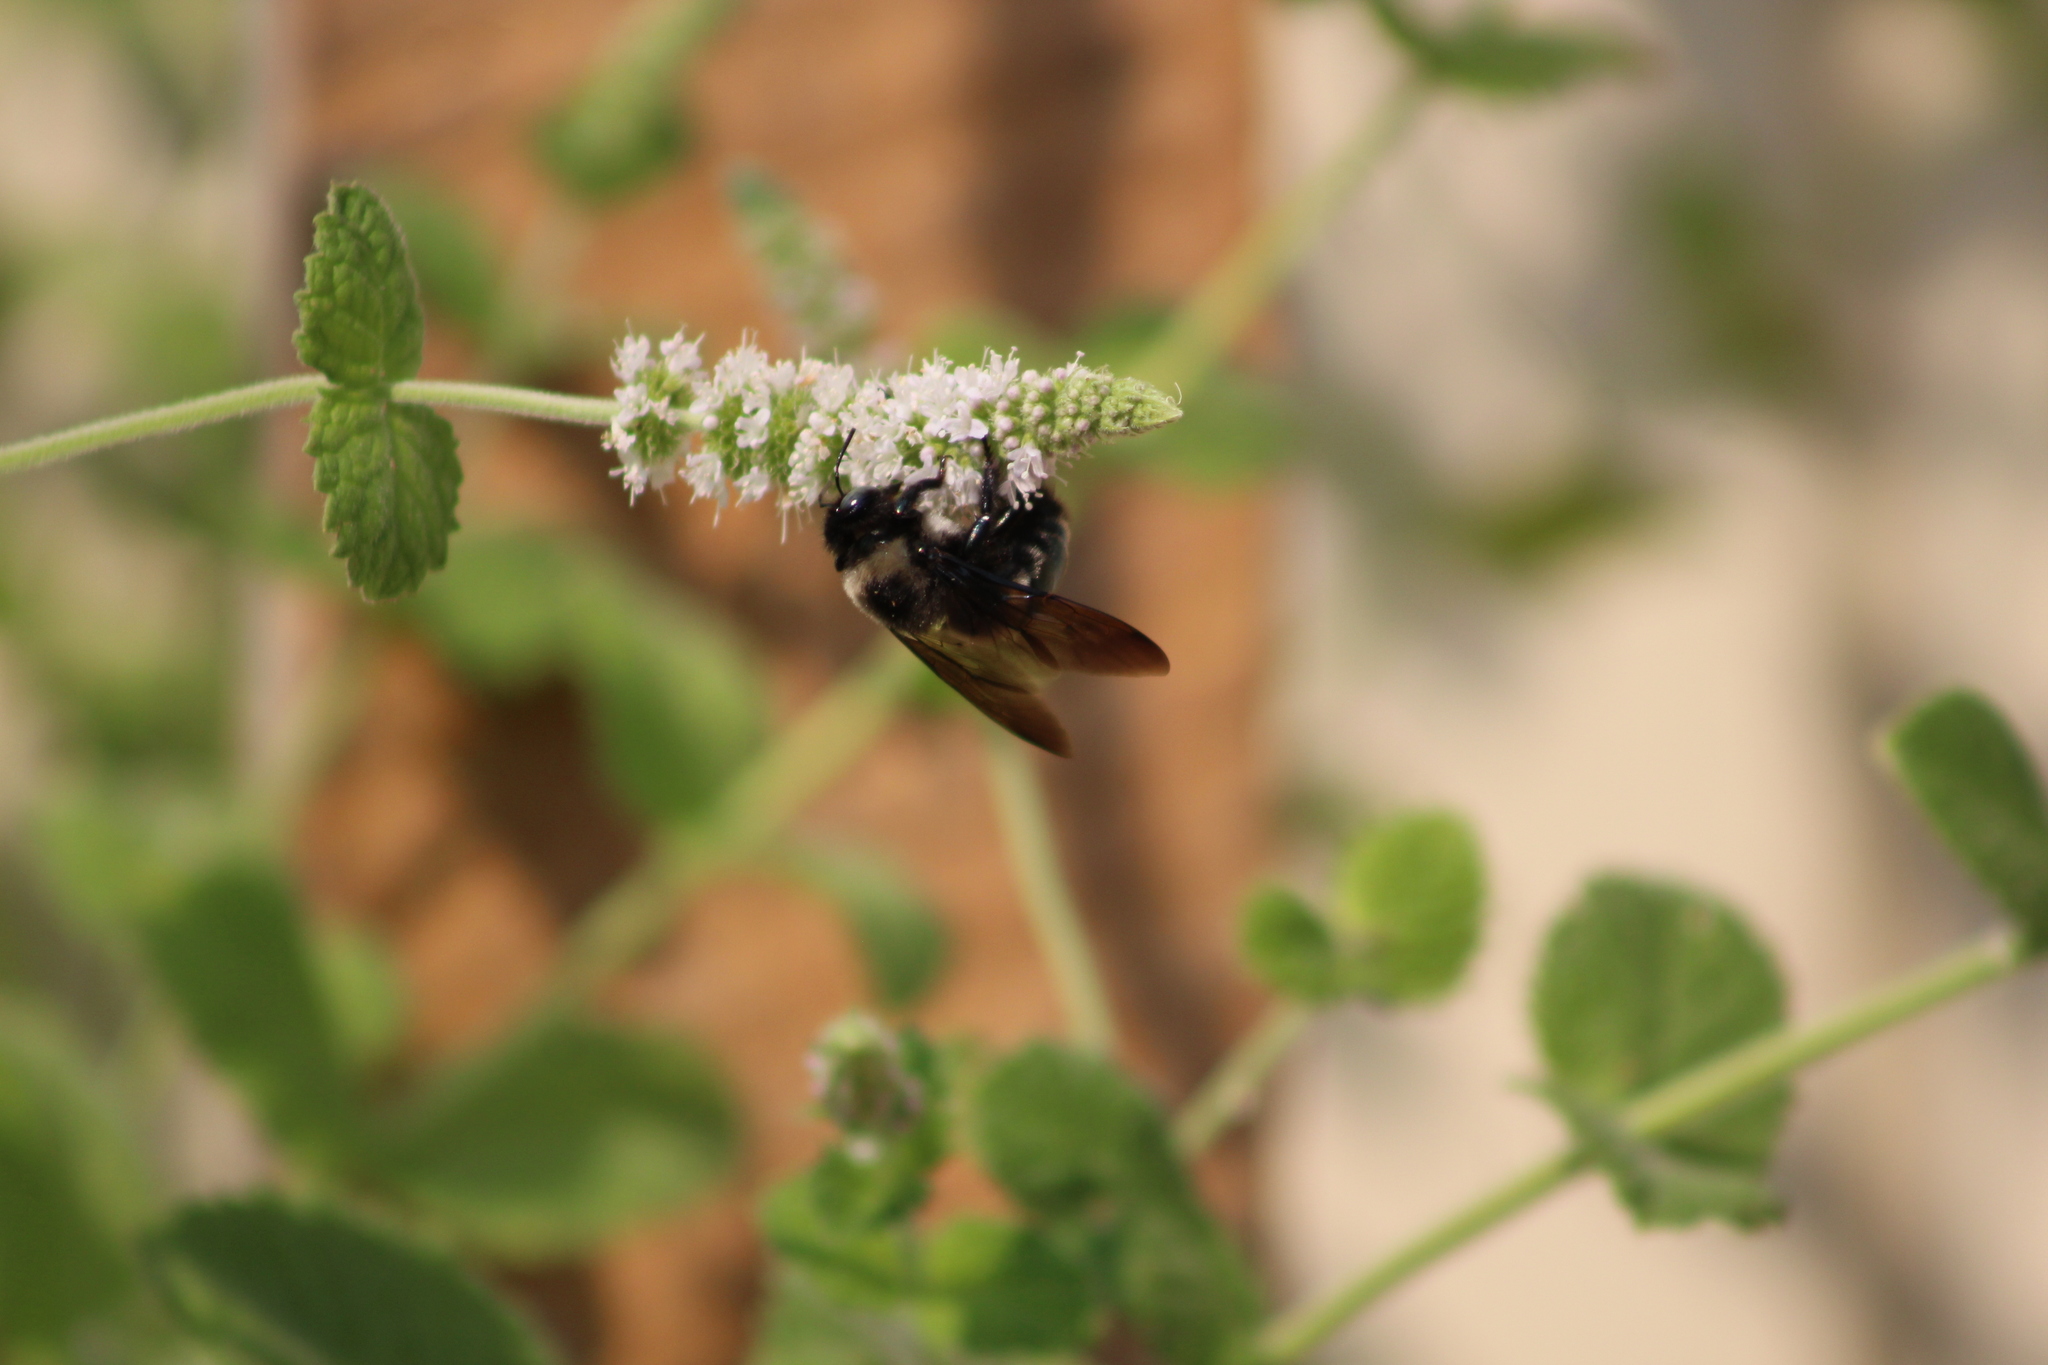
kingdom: Animalia
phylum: Arthropoda
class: Insecta
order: Hymenoptera
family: Apidae
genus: Xylocopa
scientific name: Xylocopa californica
